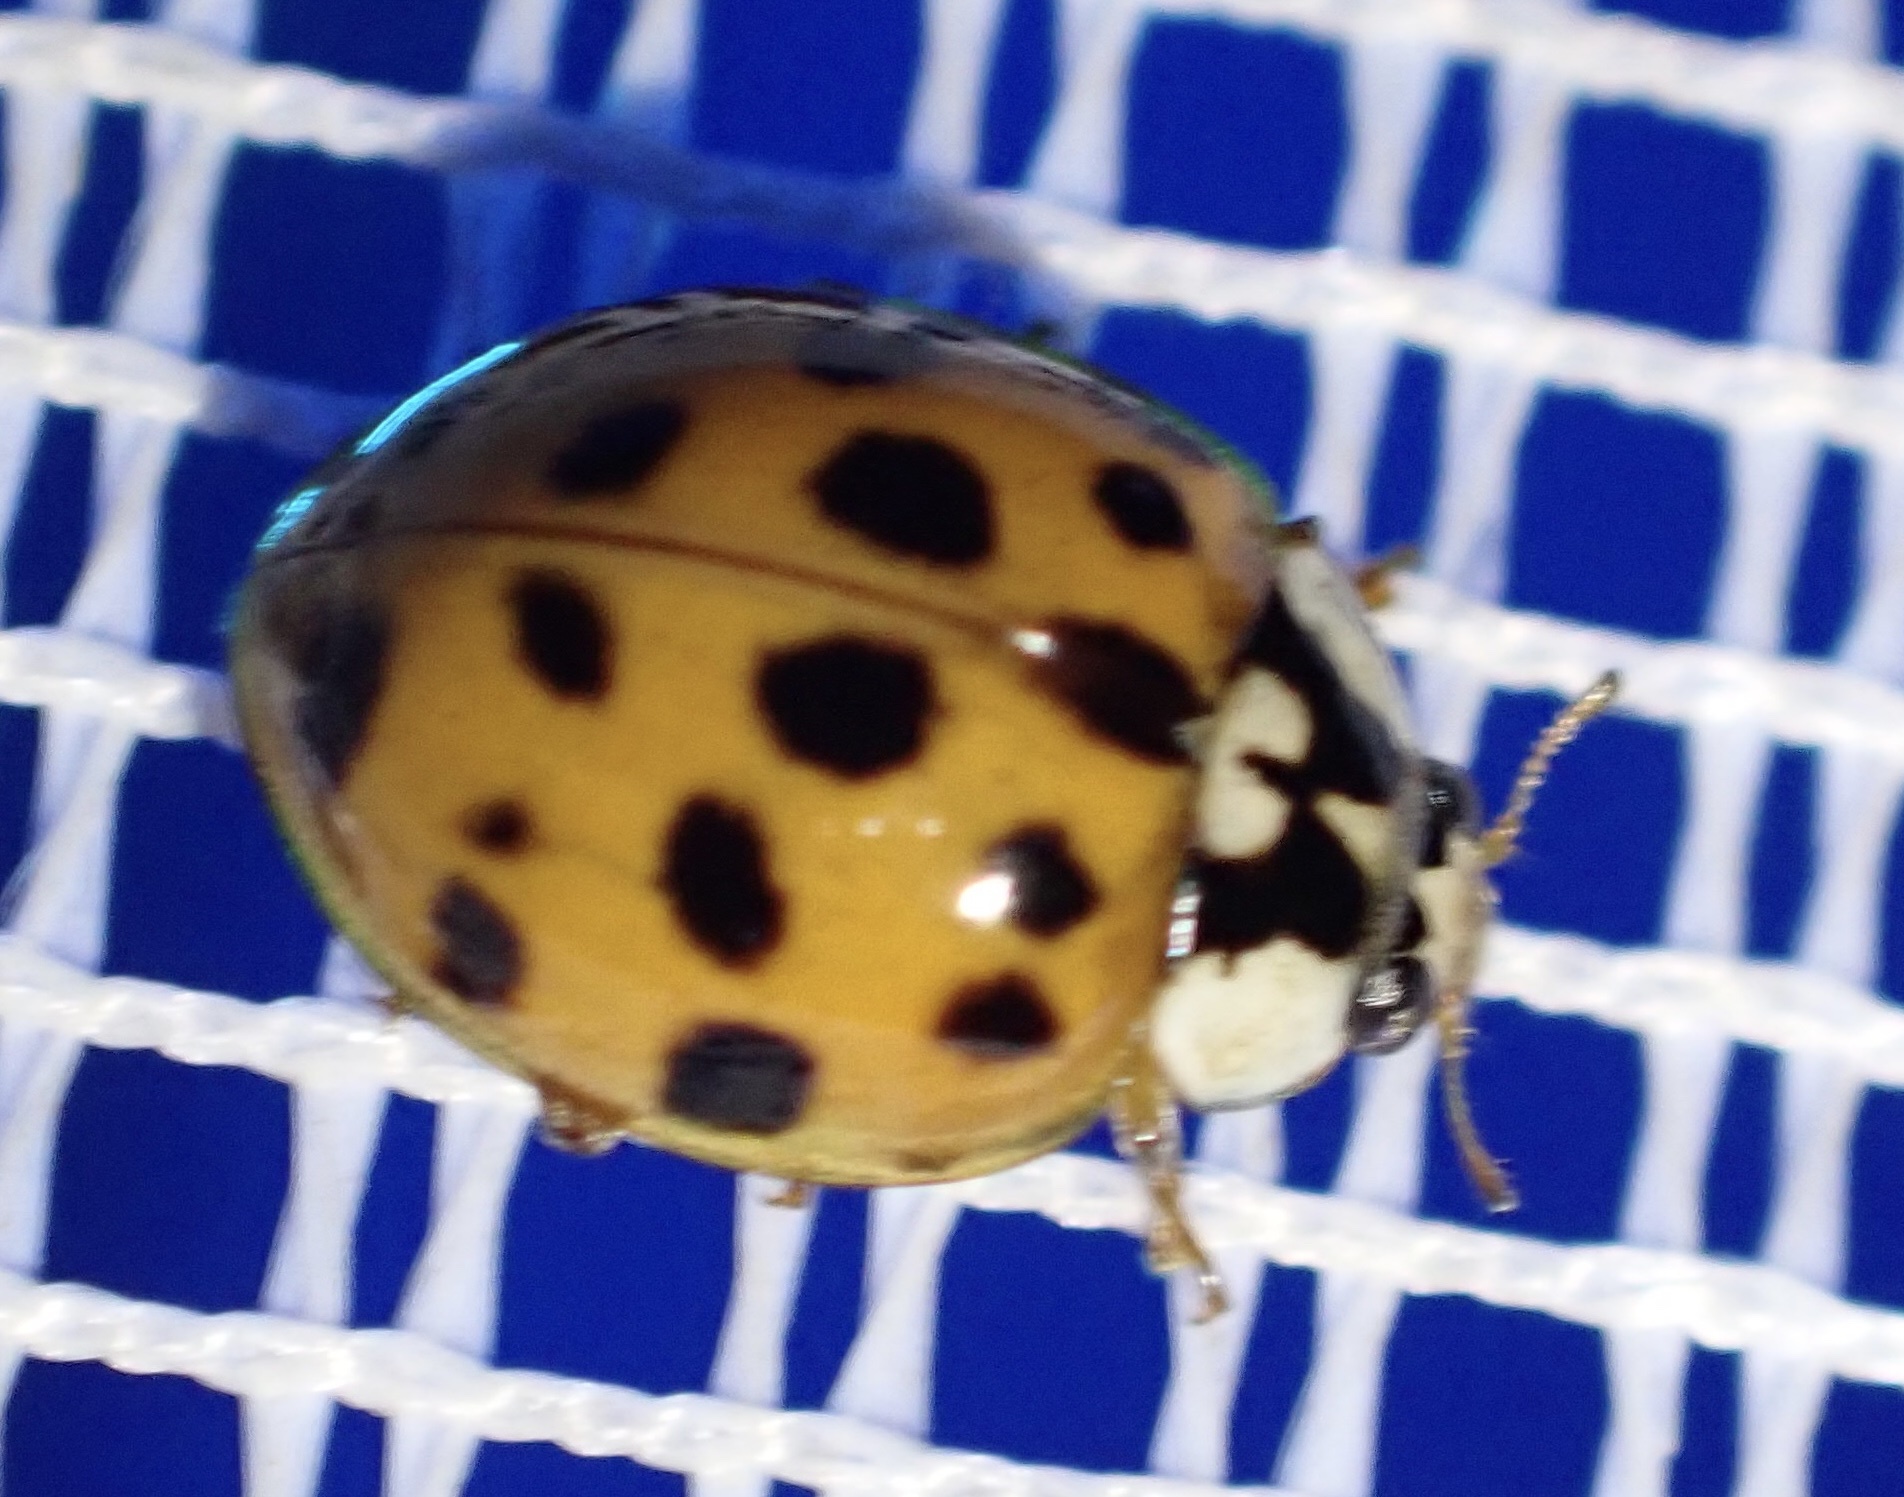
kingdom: Animalia
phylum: Arthropoda
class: Insecta
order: Coleoptera
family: Coccinellidae
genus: Harmonia
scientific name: Harmonia axyridis
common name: Harlequin ladybird
